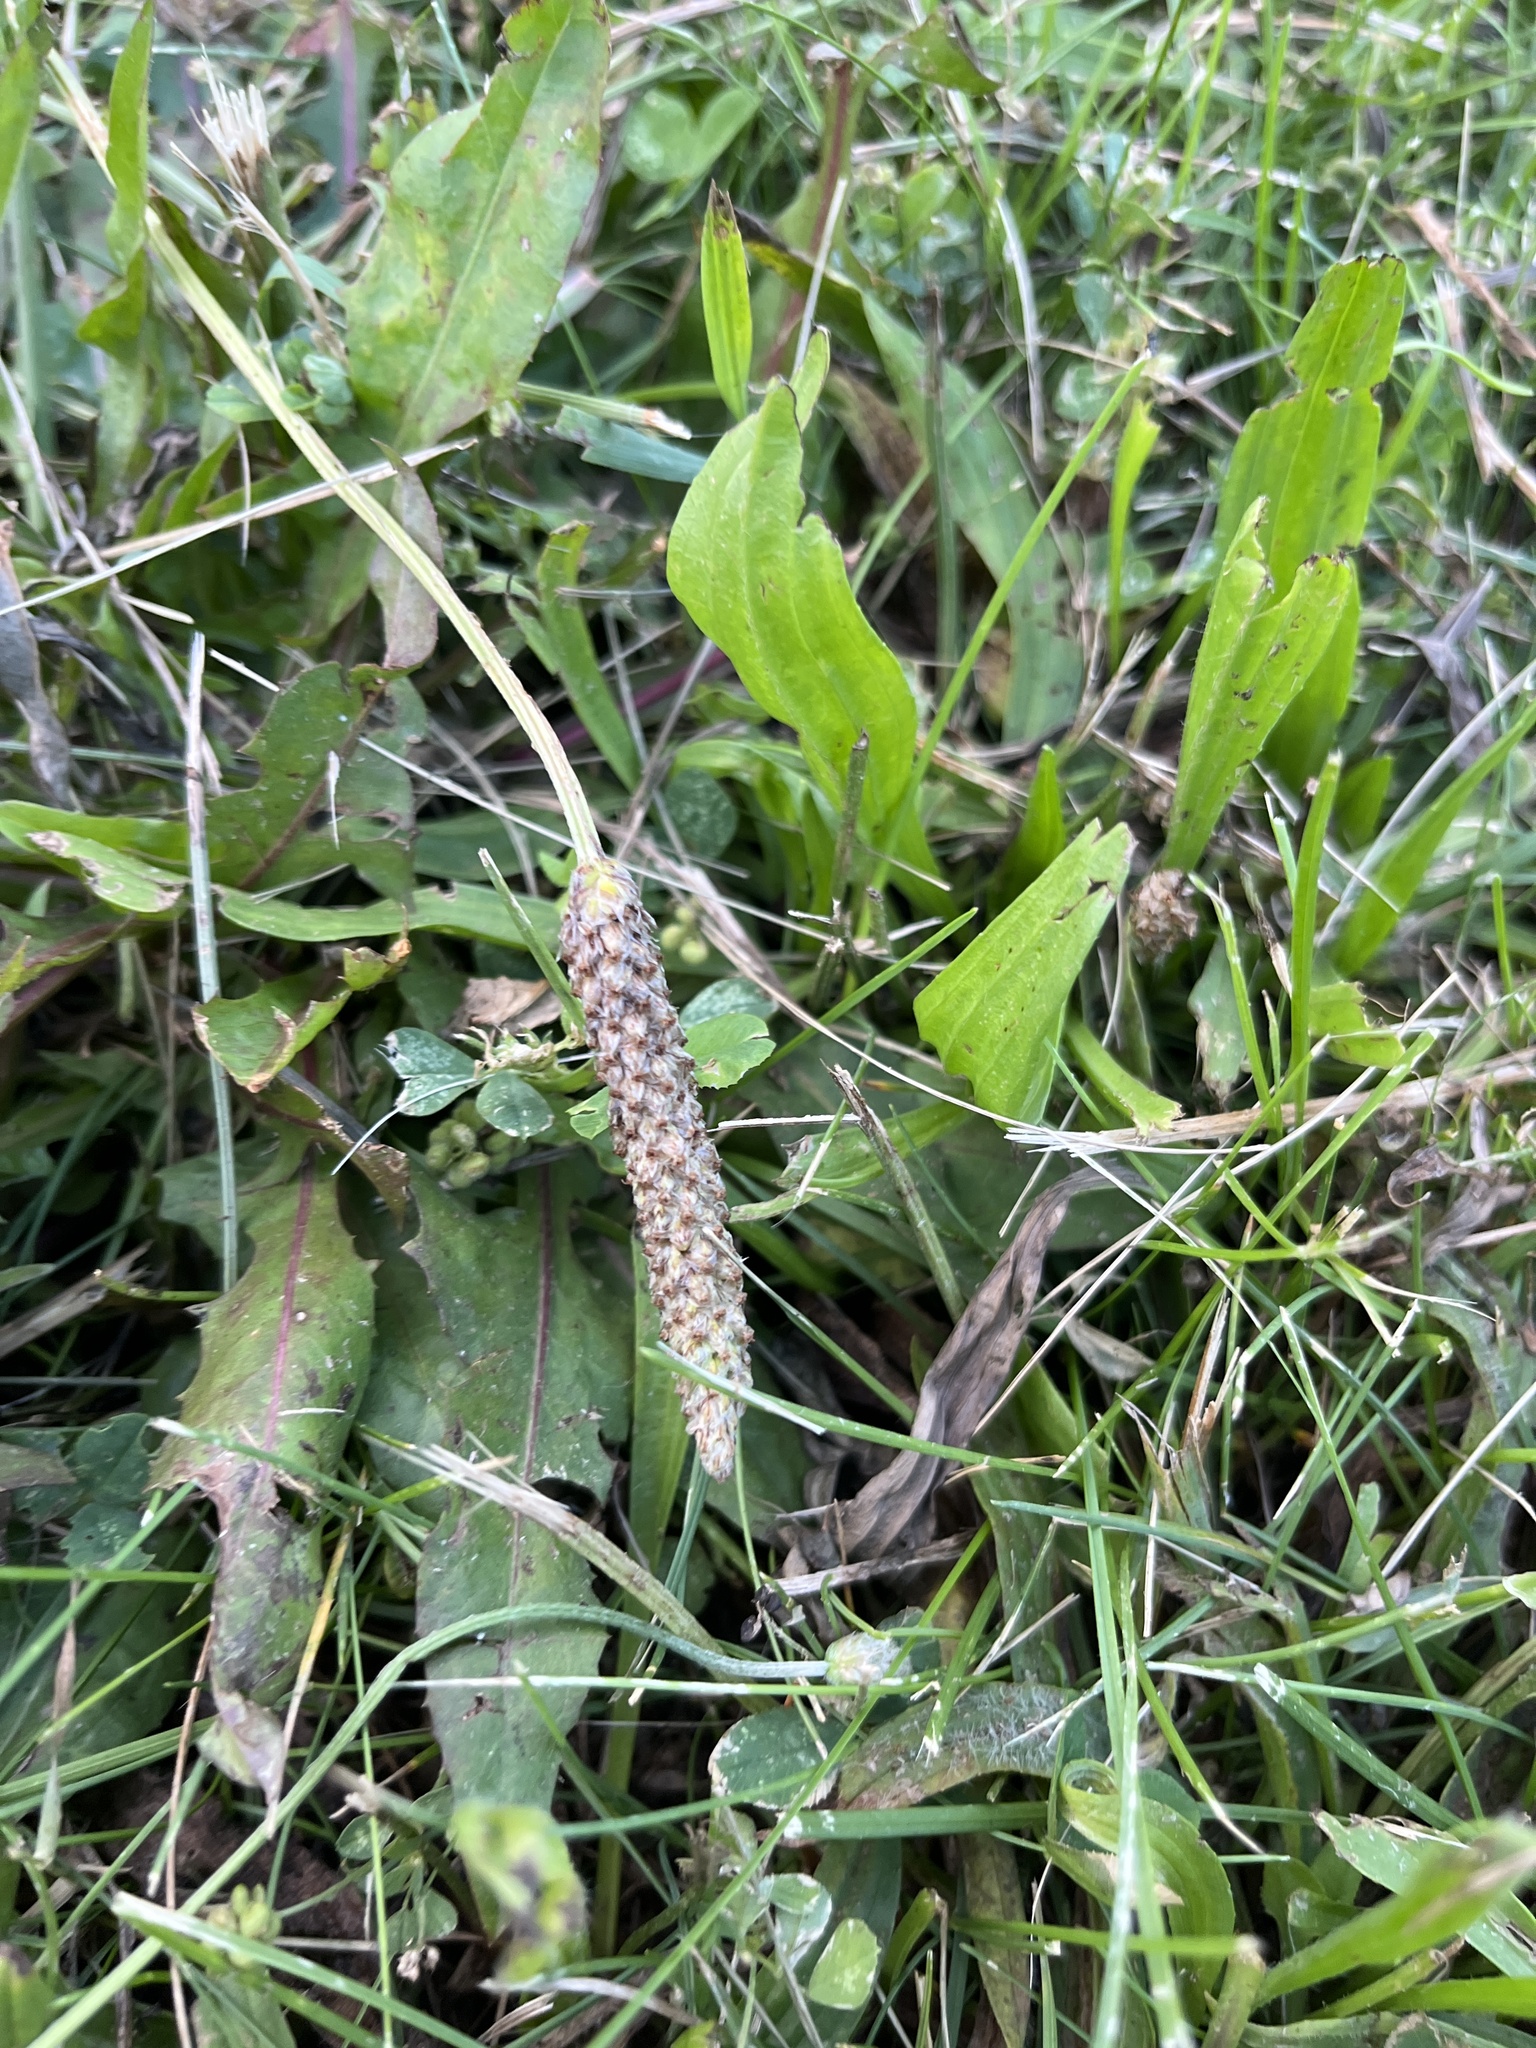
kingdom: Plantae
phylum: Tracheophyta
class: Magnoliopsida
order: Lamiales
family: Plantaginaceae
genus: Plantago
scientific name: Plantago lanceolata
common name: Ribwort plantain
